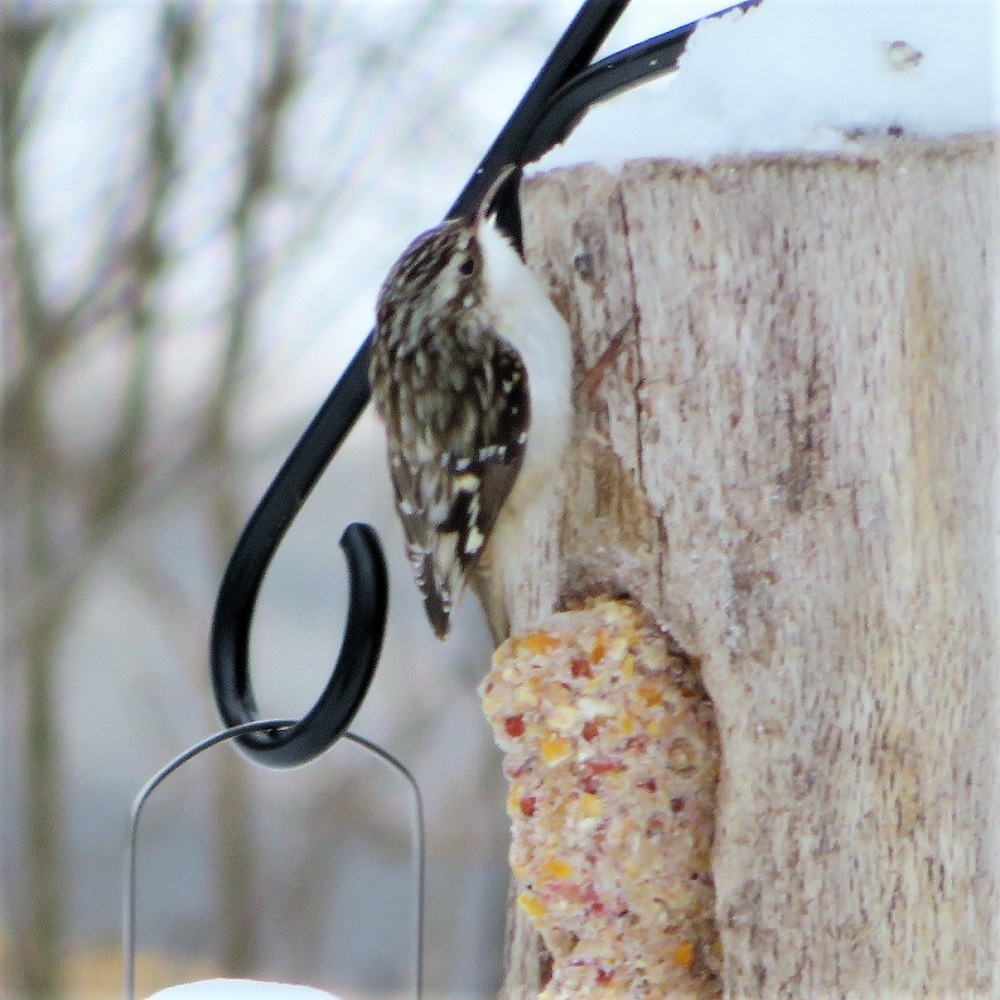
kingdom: Animalia
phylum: Chordata
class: Aves
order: Passeriformes
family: Certhiidae
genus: Certhia
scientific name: Certhia americana
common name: Brown creeper
